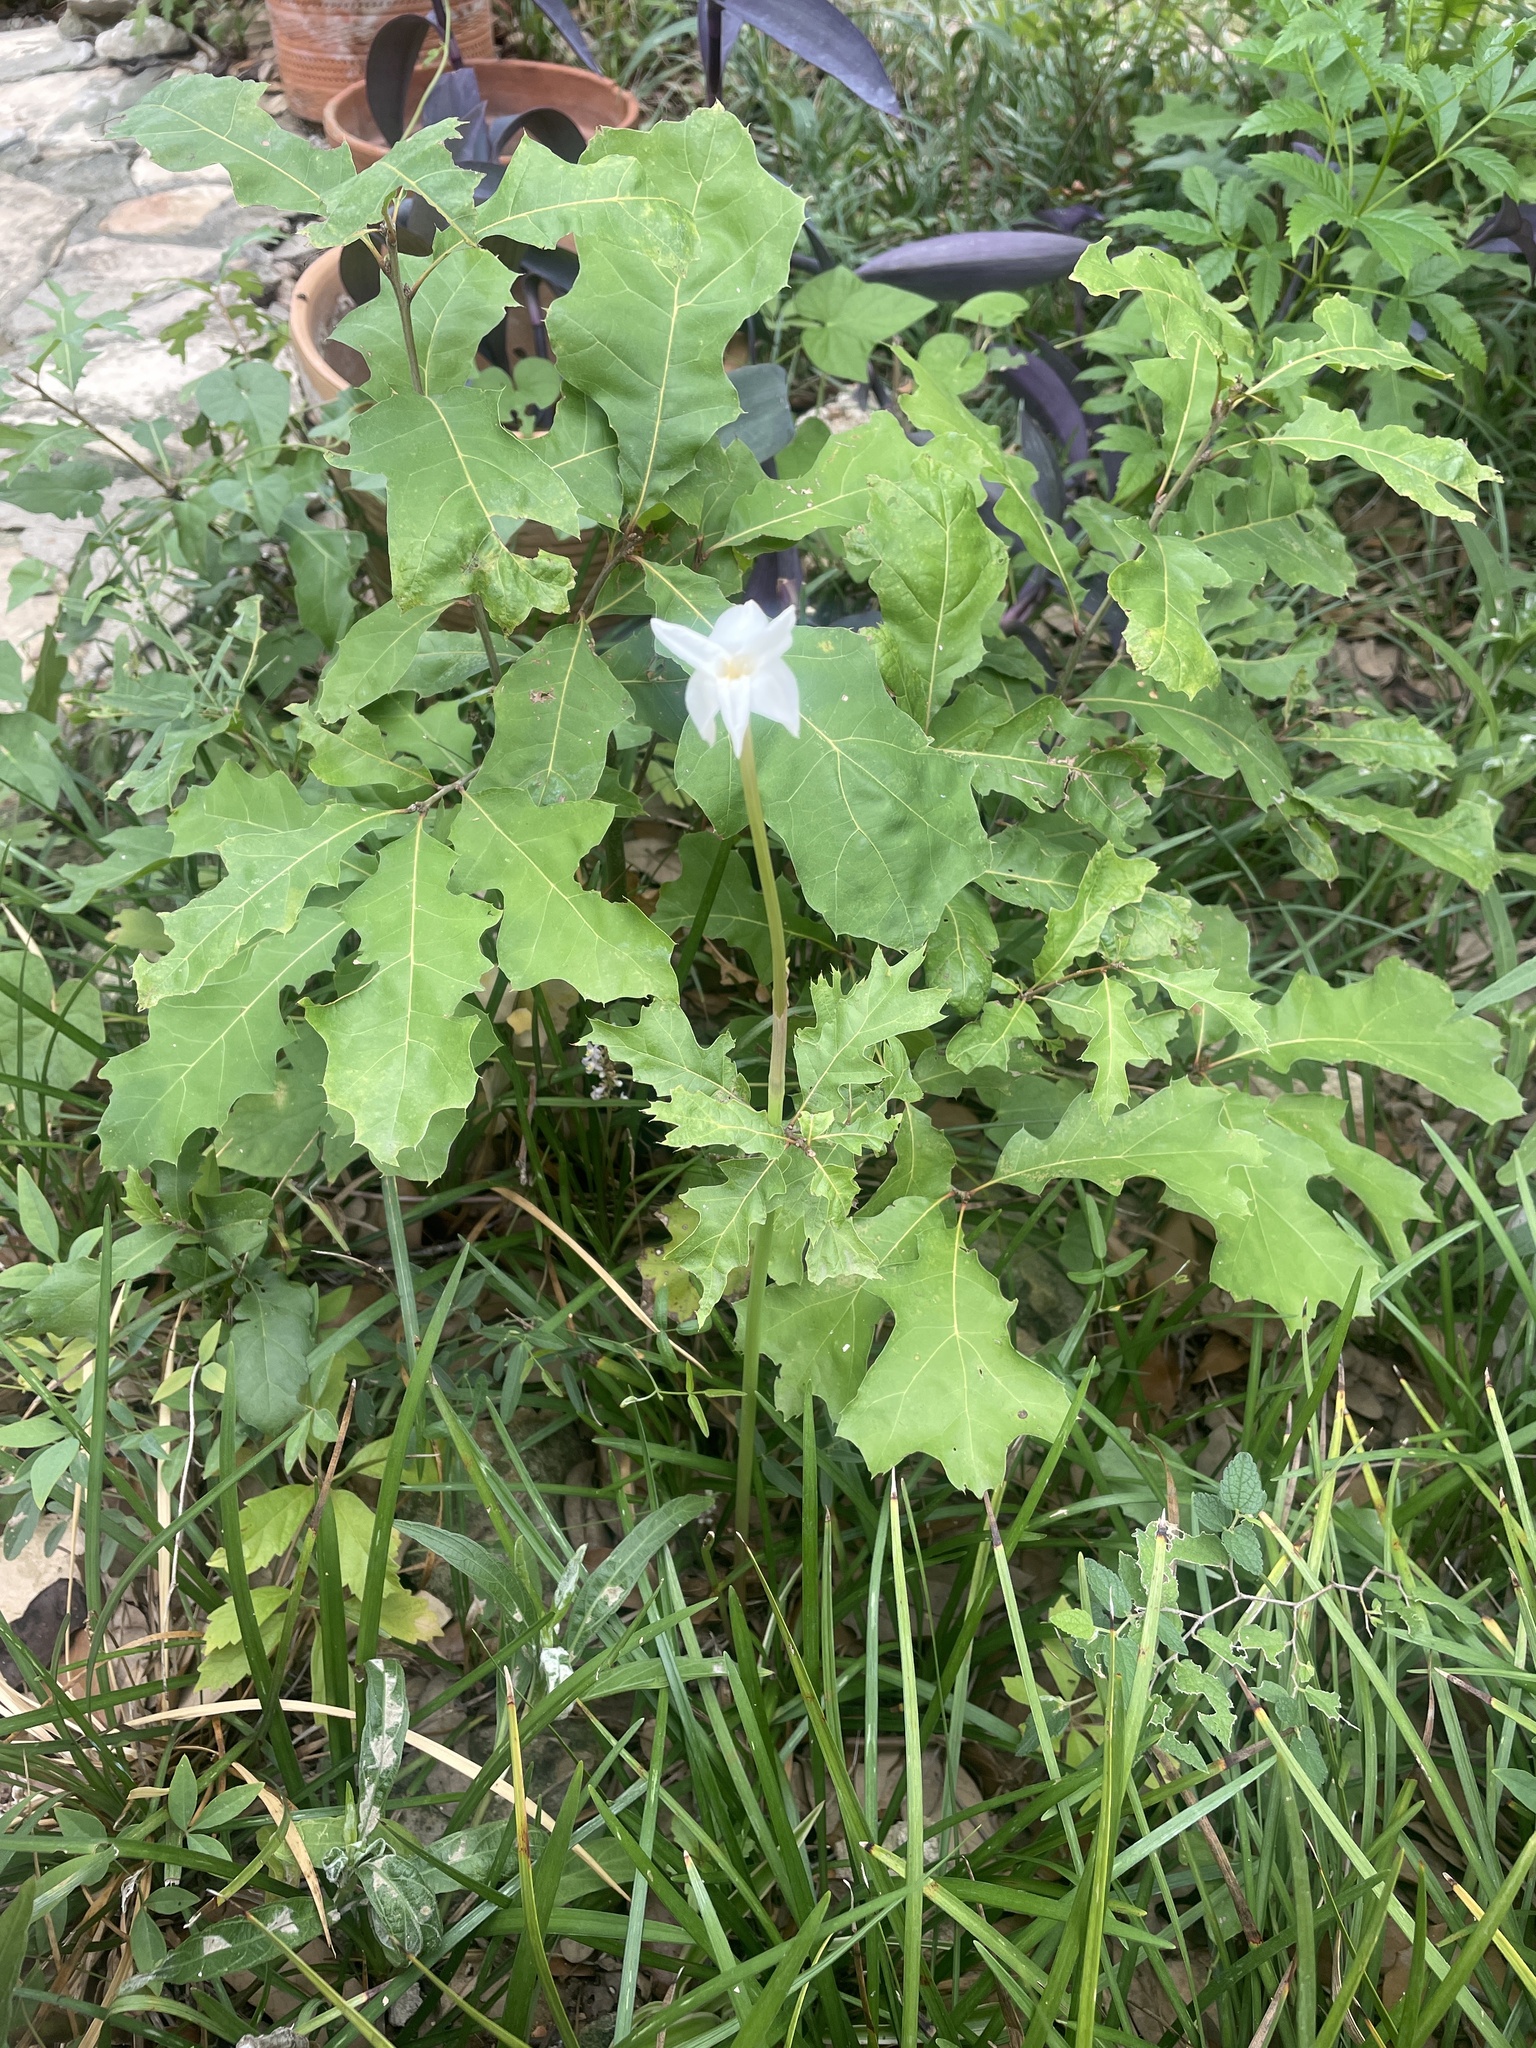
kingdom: Plantae
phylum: Tracheophyta
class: Liliopsida
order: Asparagales
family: Amaryllidaceae
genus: Zephyranthes
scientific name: Zephyranthes chlorosolen
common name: Evening rain-lily
